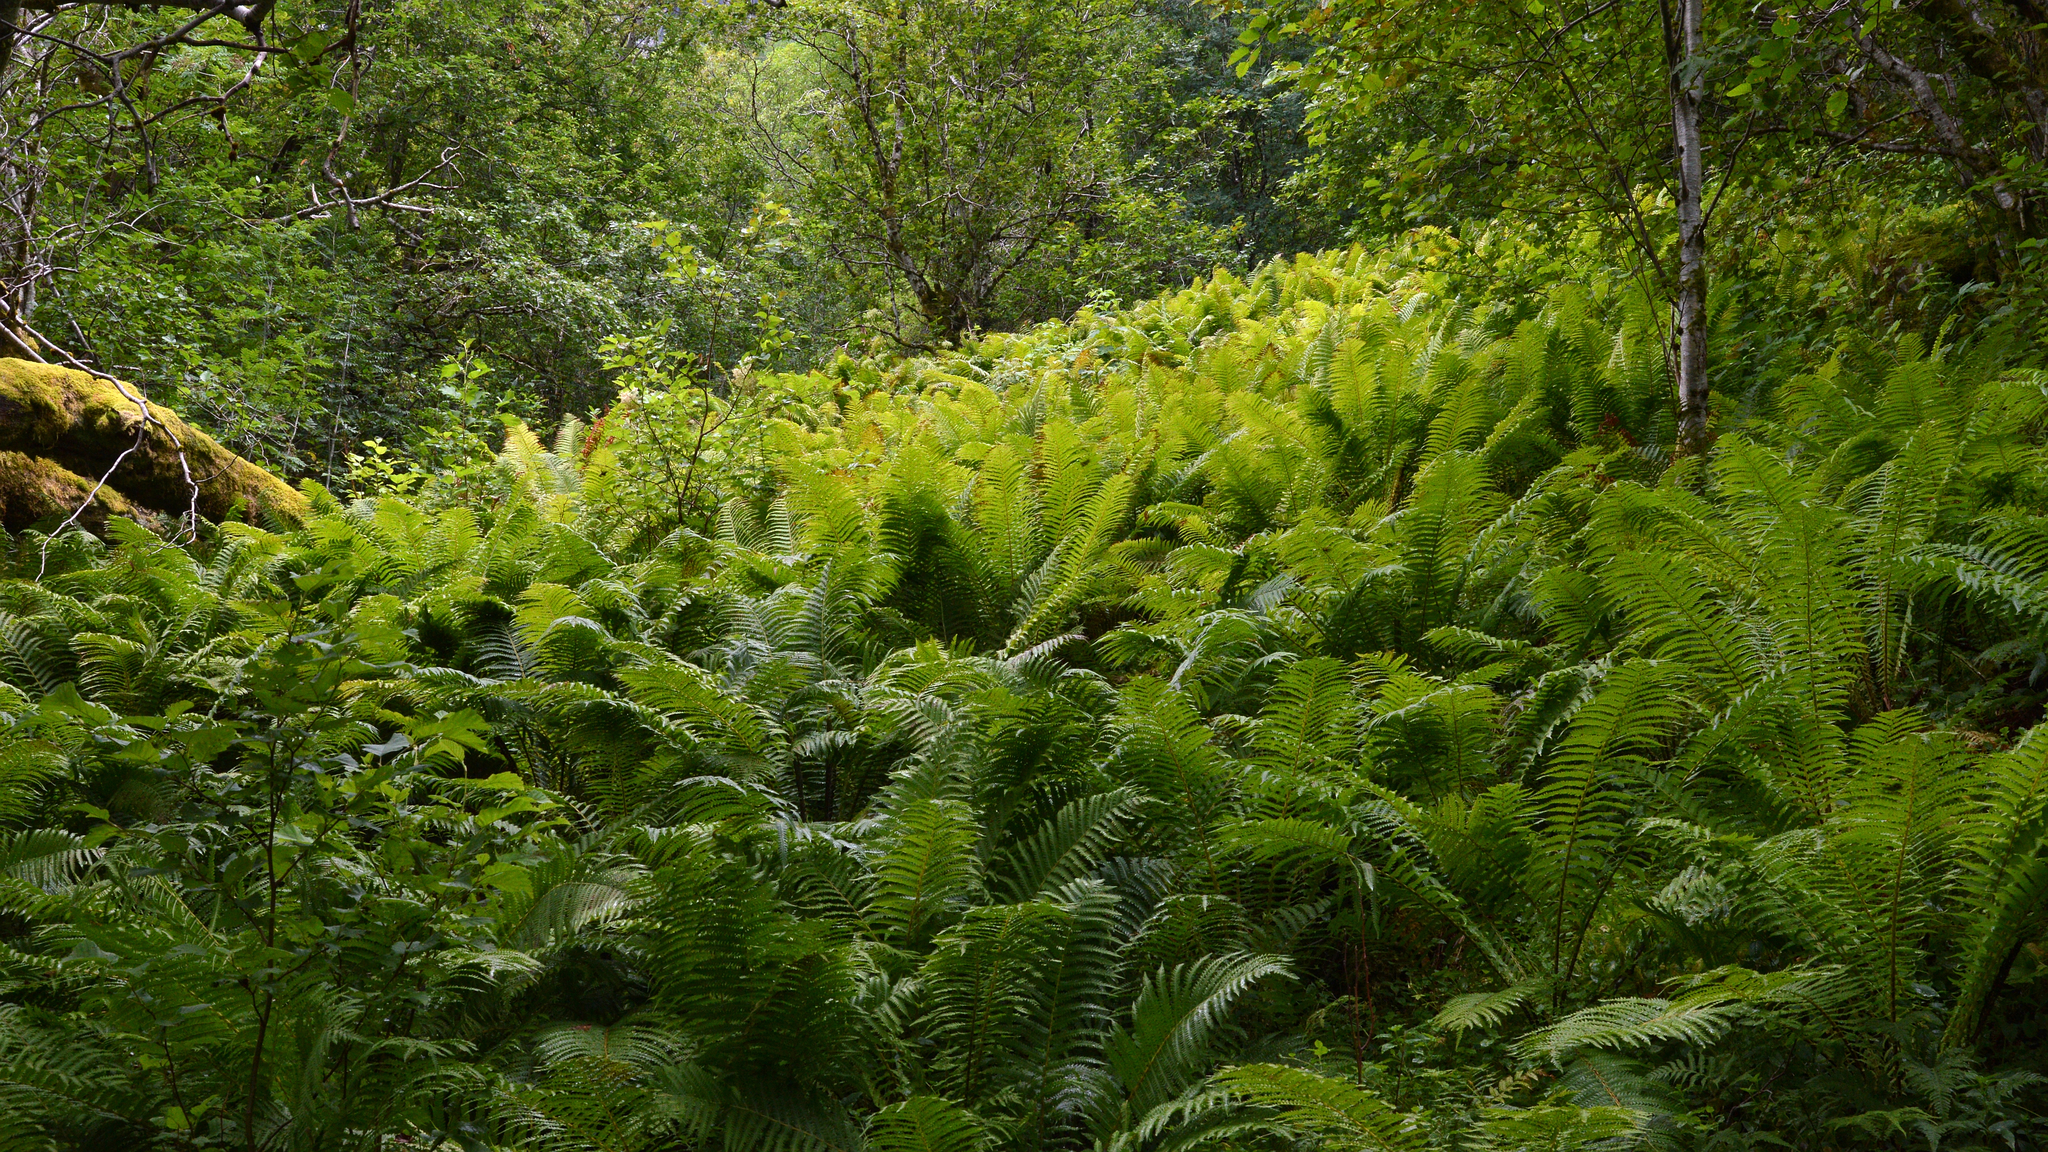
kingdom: Plantae
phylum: Tracheophyta
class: Polypodiopsida
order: Polypodiales
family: Onocleaceae
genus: Matteuccia
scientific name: Matteuccia struthiopteris
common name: Ostrich fern
